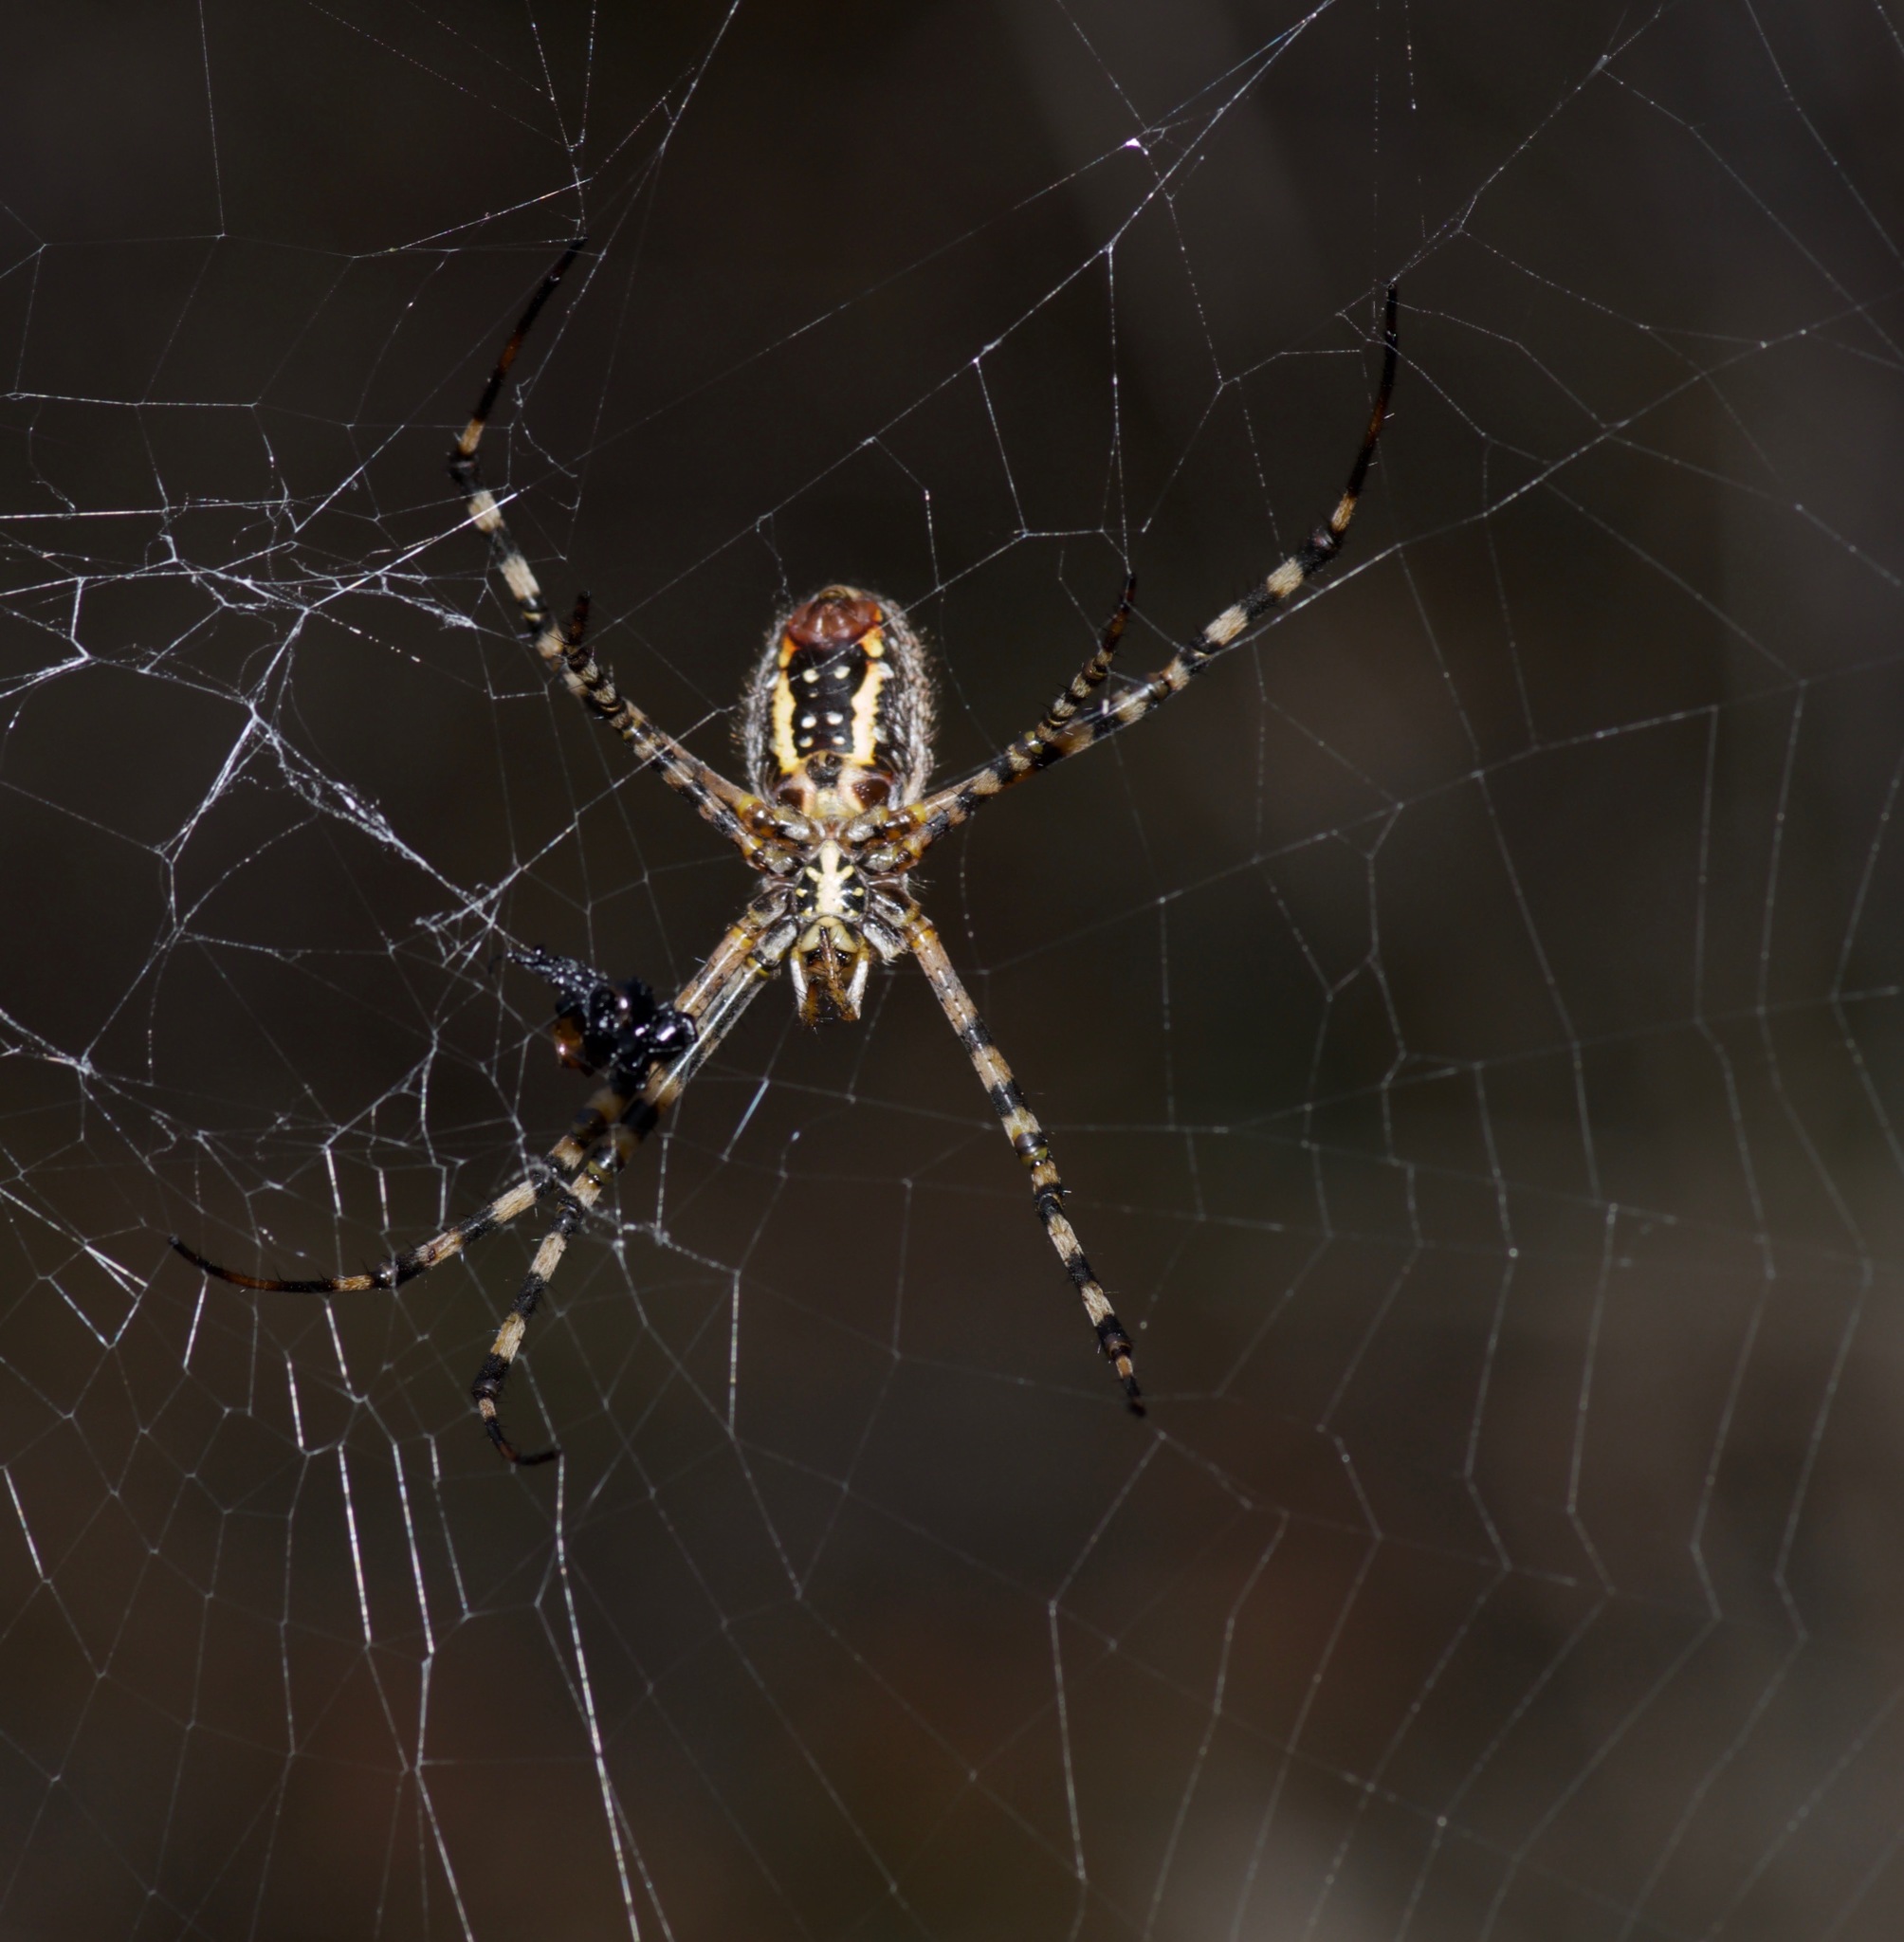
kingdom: Animalia
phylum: Arthropoda
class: Arachnida
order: Araneae
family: Araneidae
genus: Argiope
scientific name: Argiope trifasciata
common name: Banded garden spider
